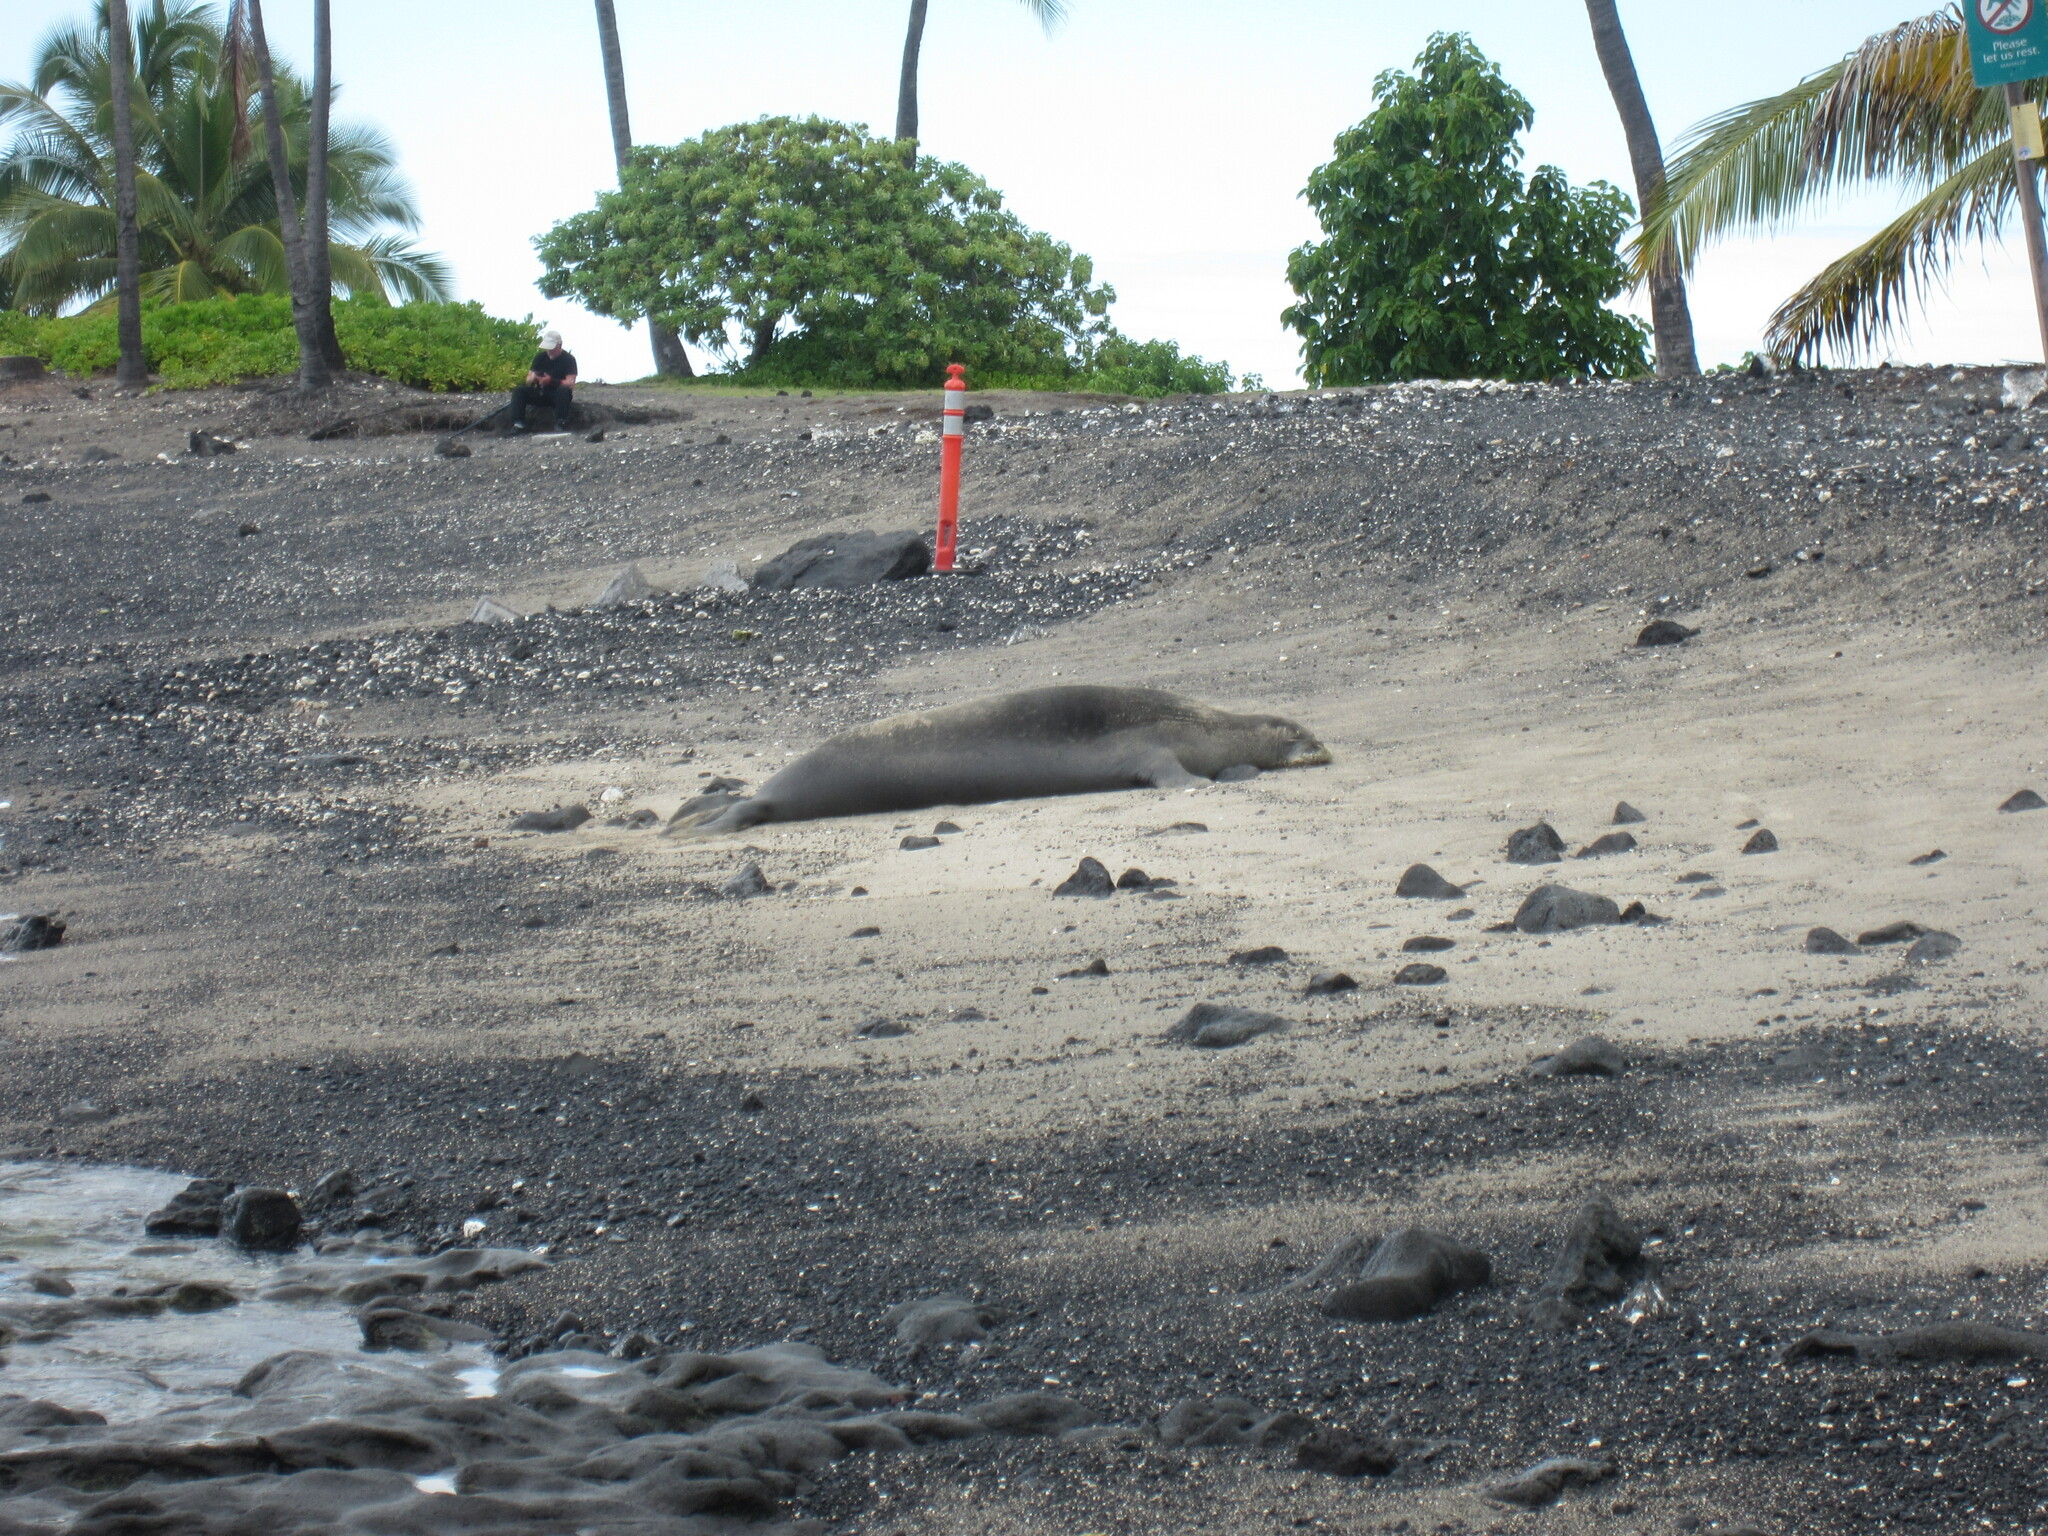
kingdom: Animalia
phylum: Chordata
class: Mammalia
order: Carnivora
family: Phocidae
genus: Neomonachus
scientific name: Neomonachus schauinslandi
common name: Hawaiian monk seal
